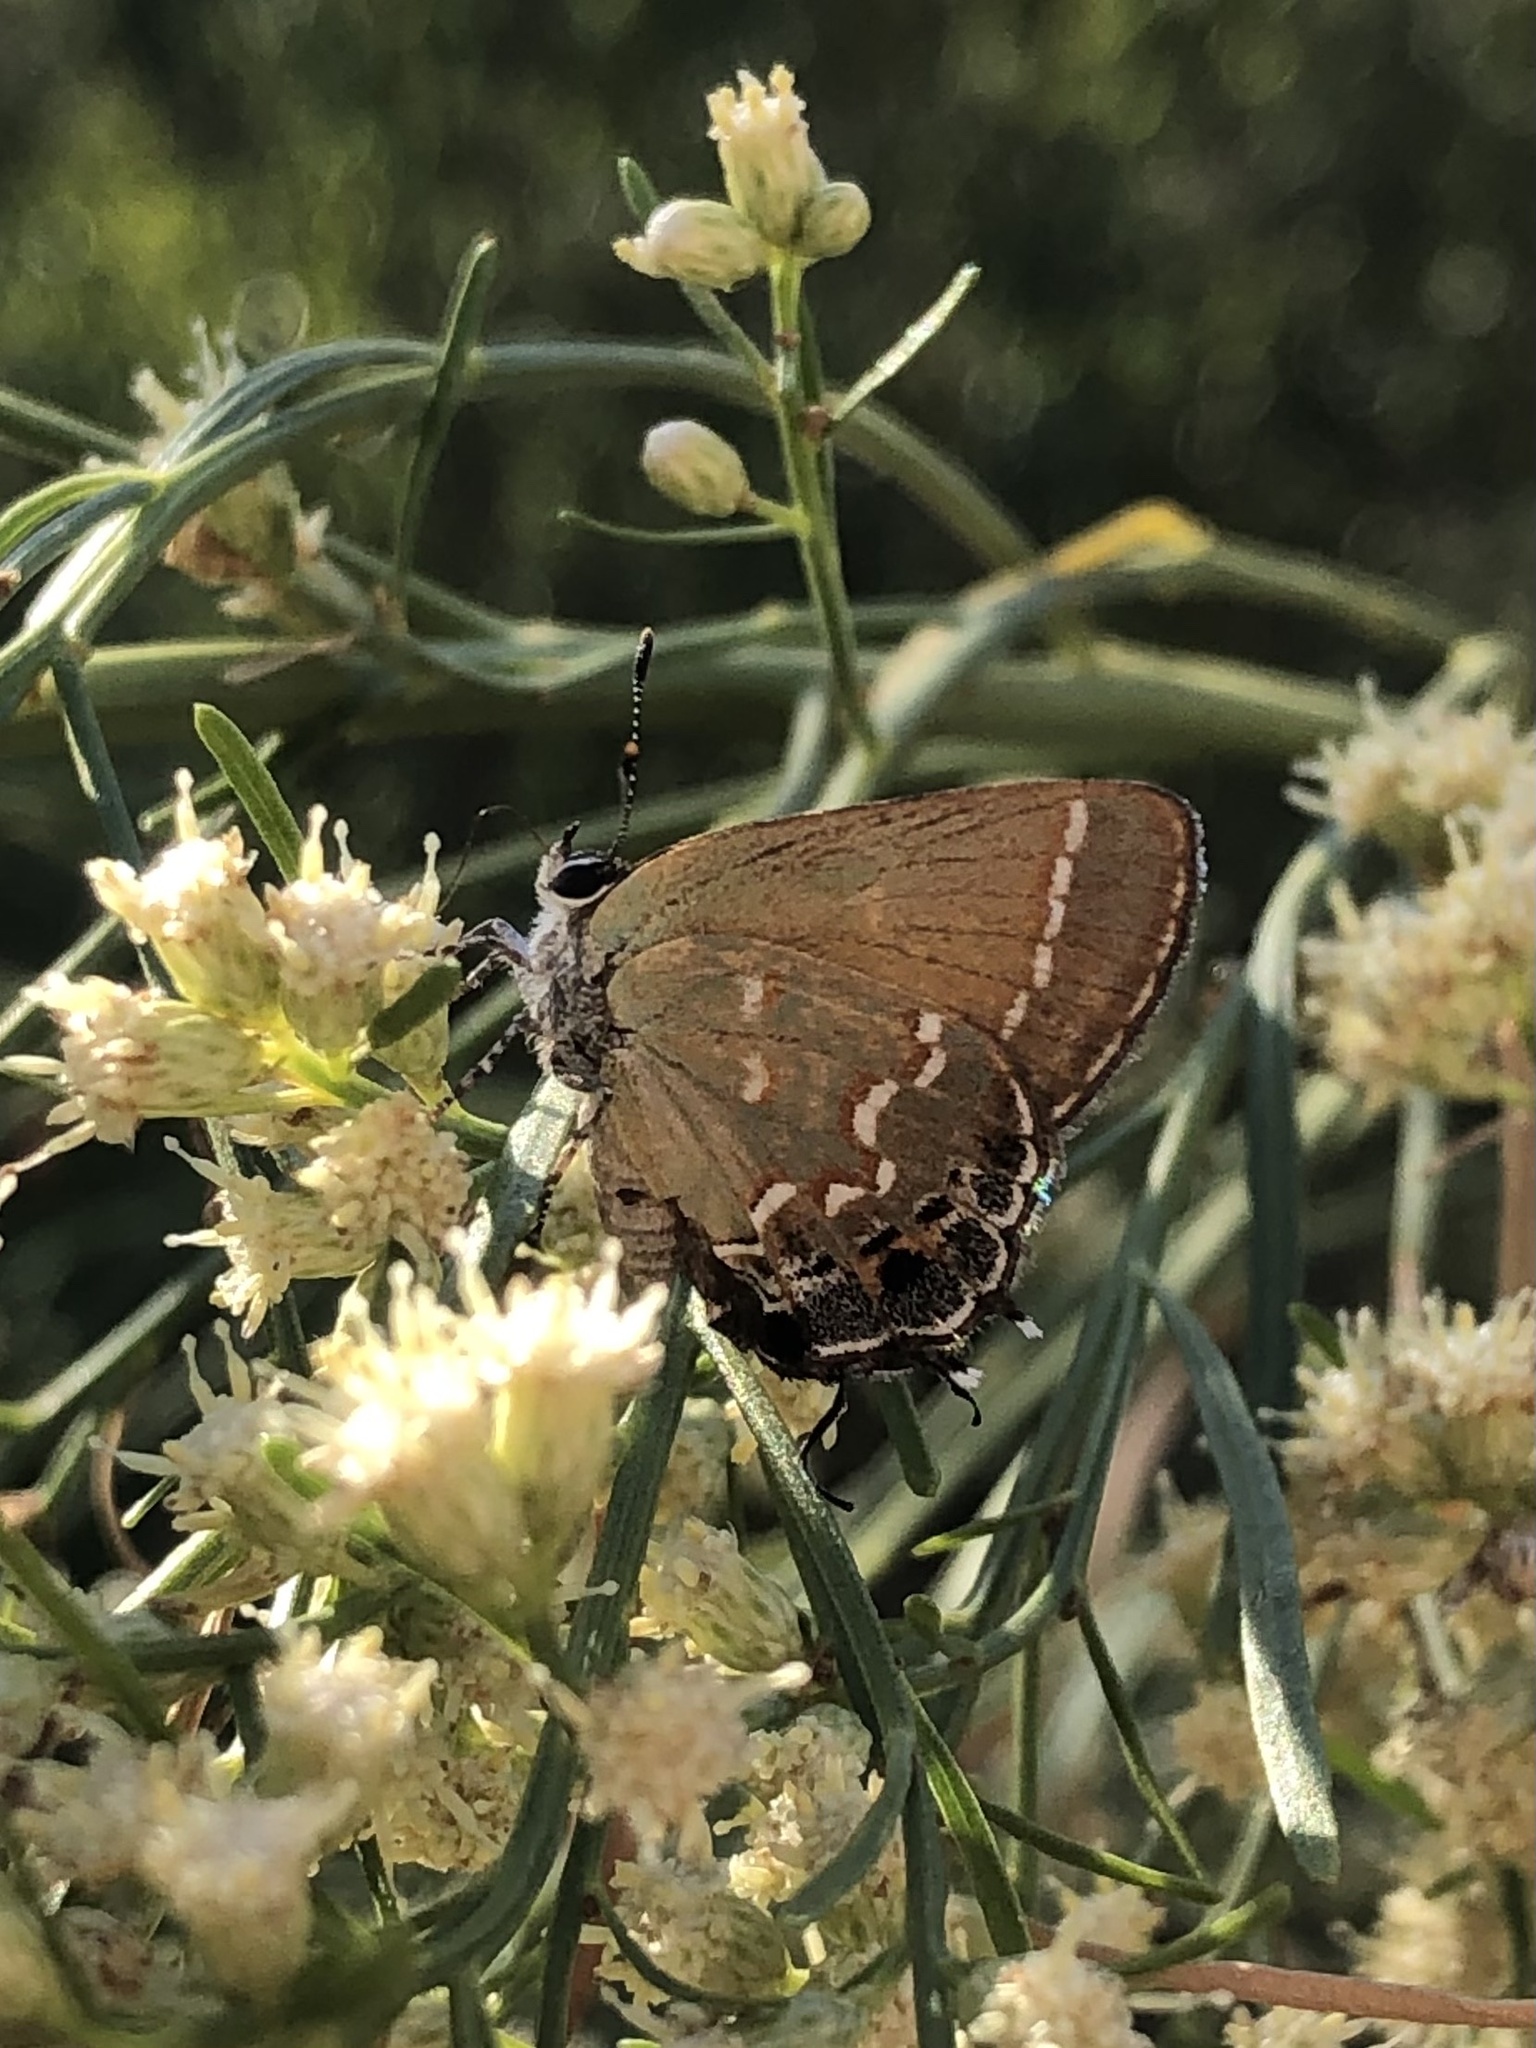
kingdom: Animalia
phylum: Arthropoda
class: Insecta
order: Lepidoptera
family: Lycaenidae
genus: Mitoura
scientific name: Mitoura gryneus
